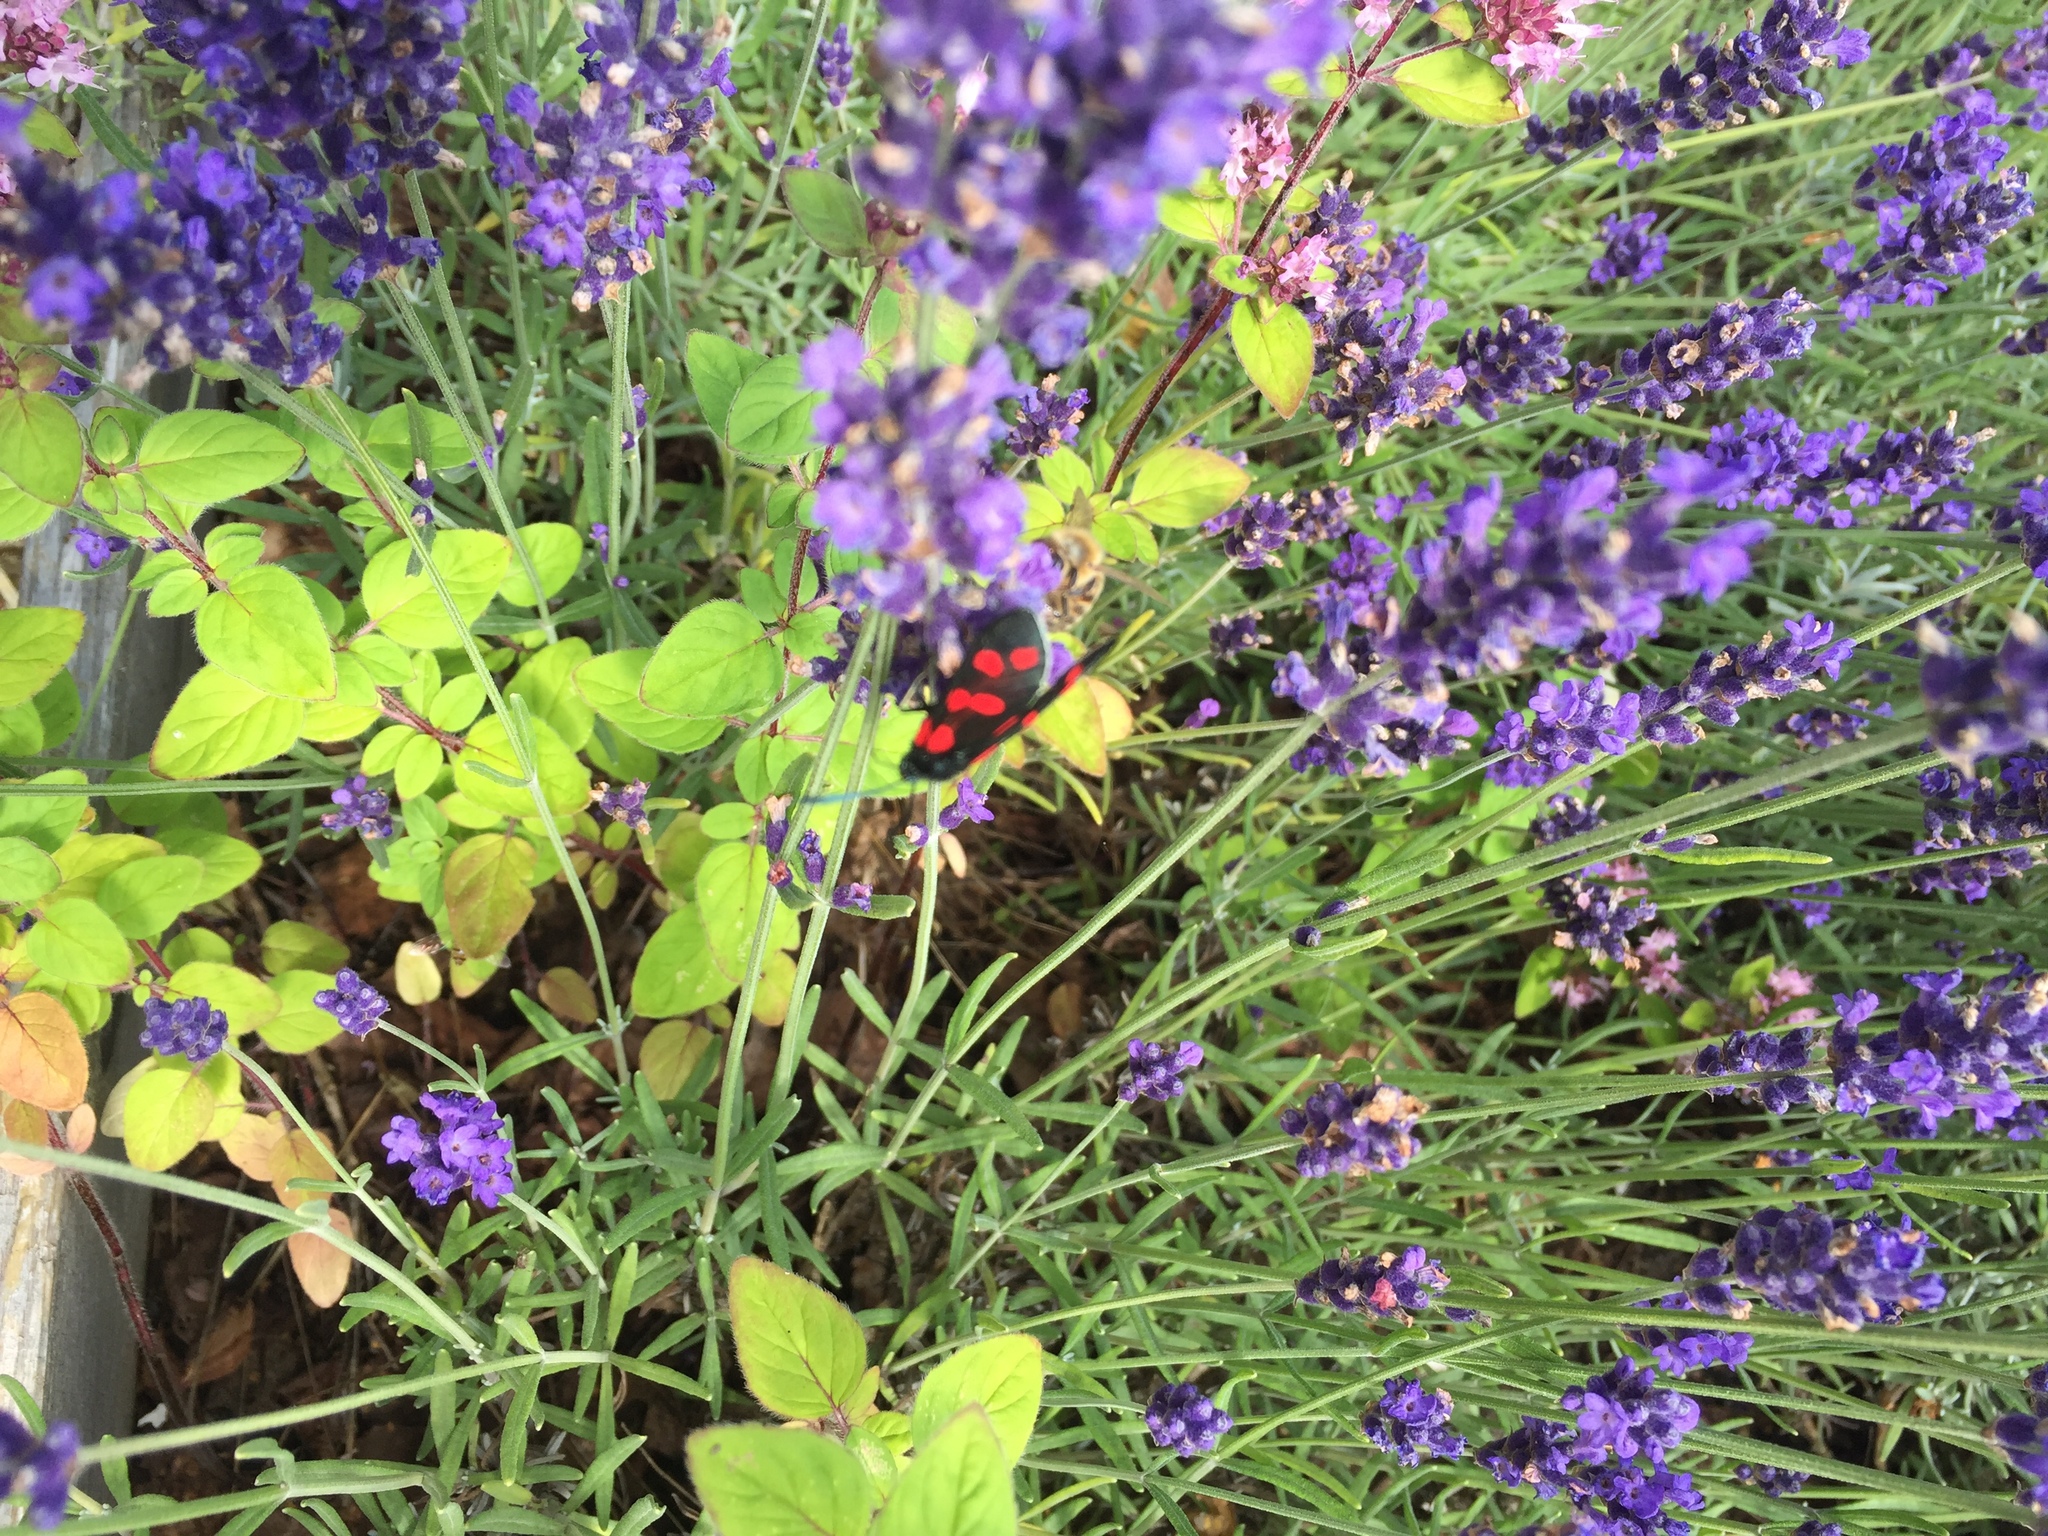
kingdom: Animalia
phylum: Arthropoda
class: Insecta
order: Lepidoptera
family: Zygaenidae
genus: Zygaena
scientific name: Zygaena filipendulae
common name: Six-spot burnet
